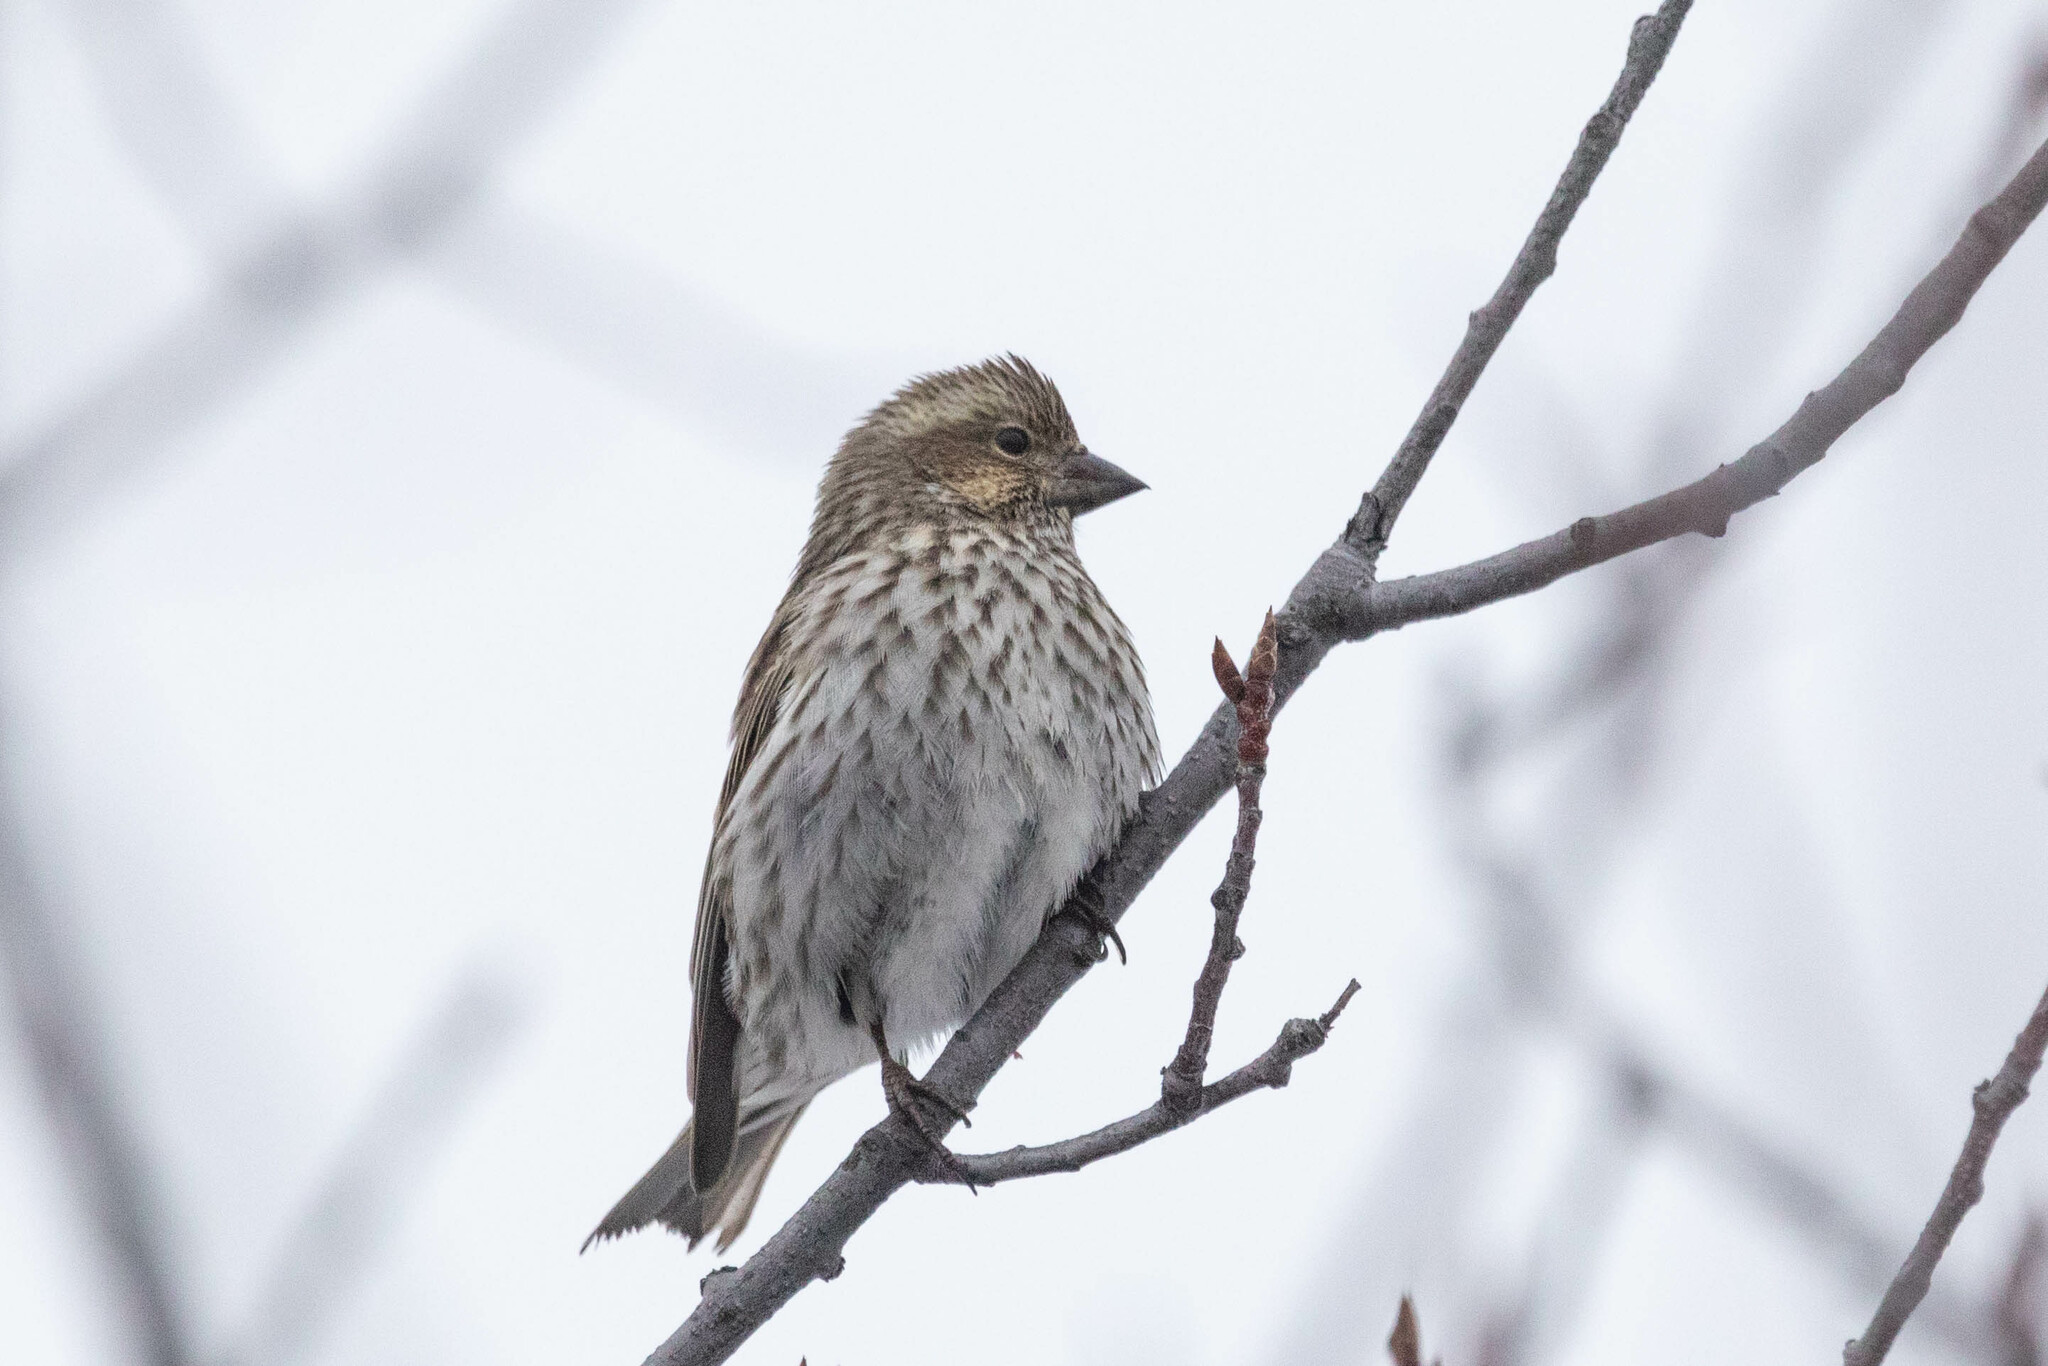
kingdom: Animalia
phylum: Chordata
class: Aves
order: Passeriformes
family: Fringillidae
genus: Haemorhous
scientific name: Haemorhous cassinii
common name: Cassin's finch
